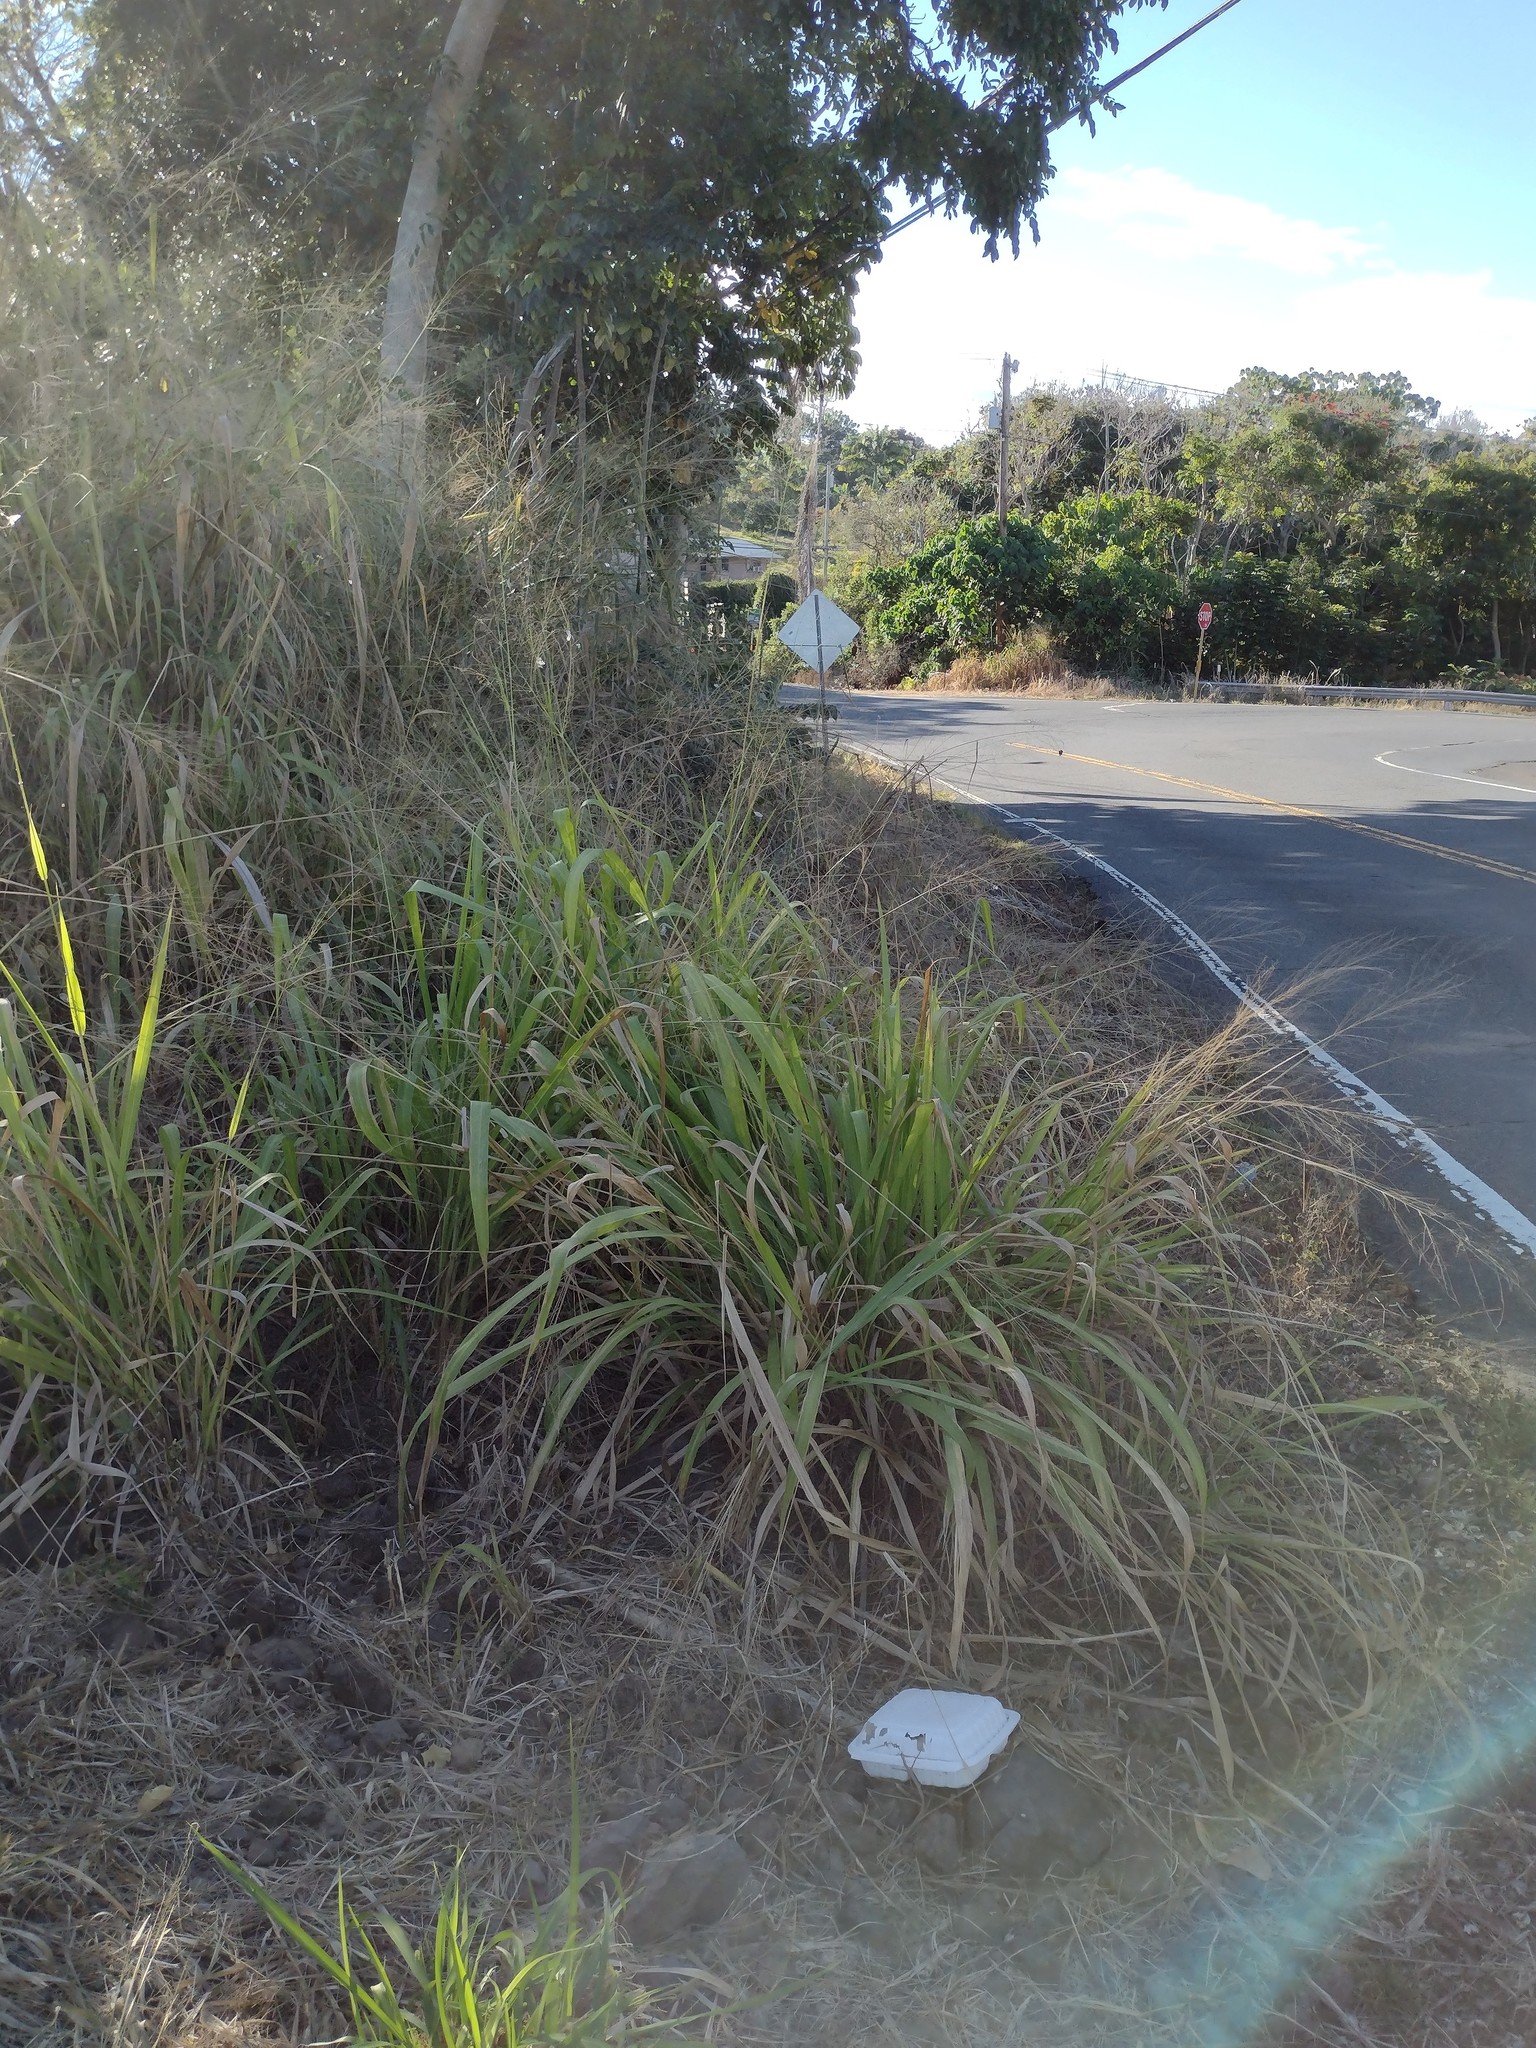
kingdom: Plantae
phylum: Tracheophyta
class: Liliopsida
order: Poales
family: Poaceae
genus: Megathyrsus
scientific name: Megathyrsus maximus
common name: Guineagrass
